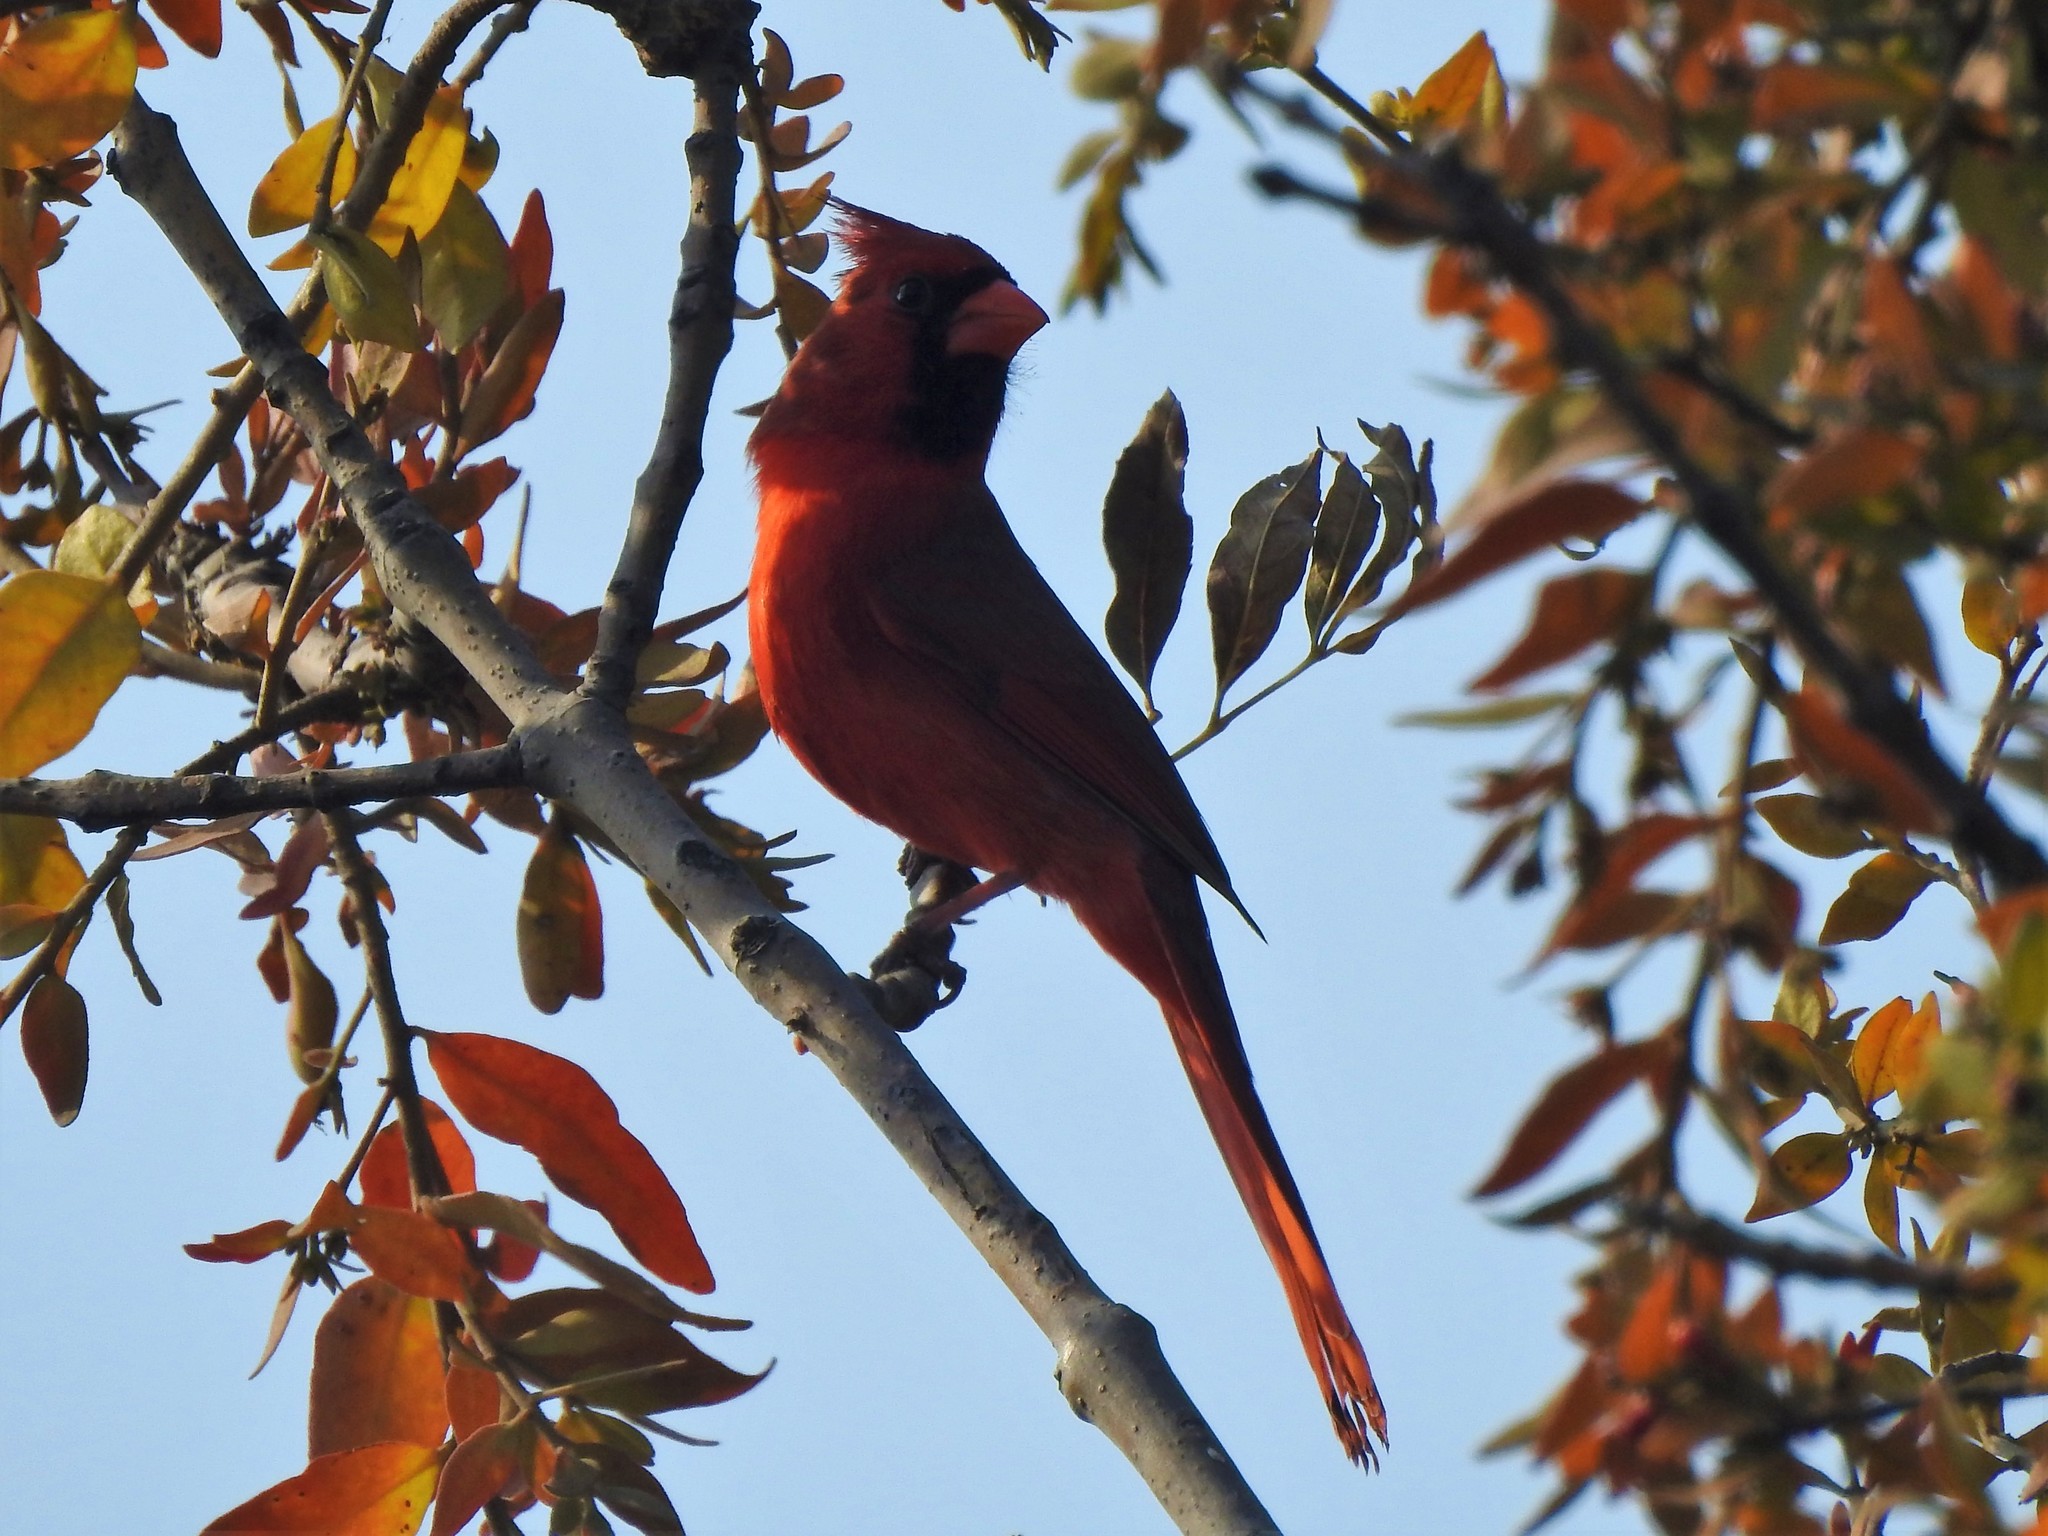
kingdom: Animalia
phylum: Chordata
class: Aves
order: Passeriformes
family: Cardinalidae
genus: Cardinalis
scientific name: Cardinalis cardinalis
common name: Northern cardinal
